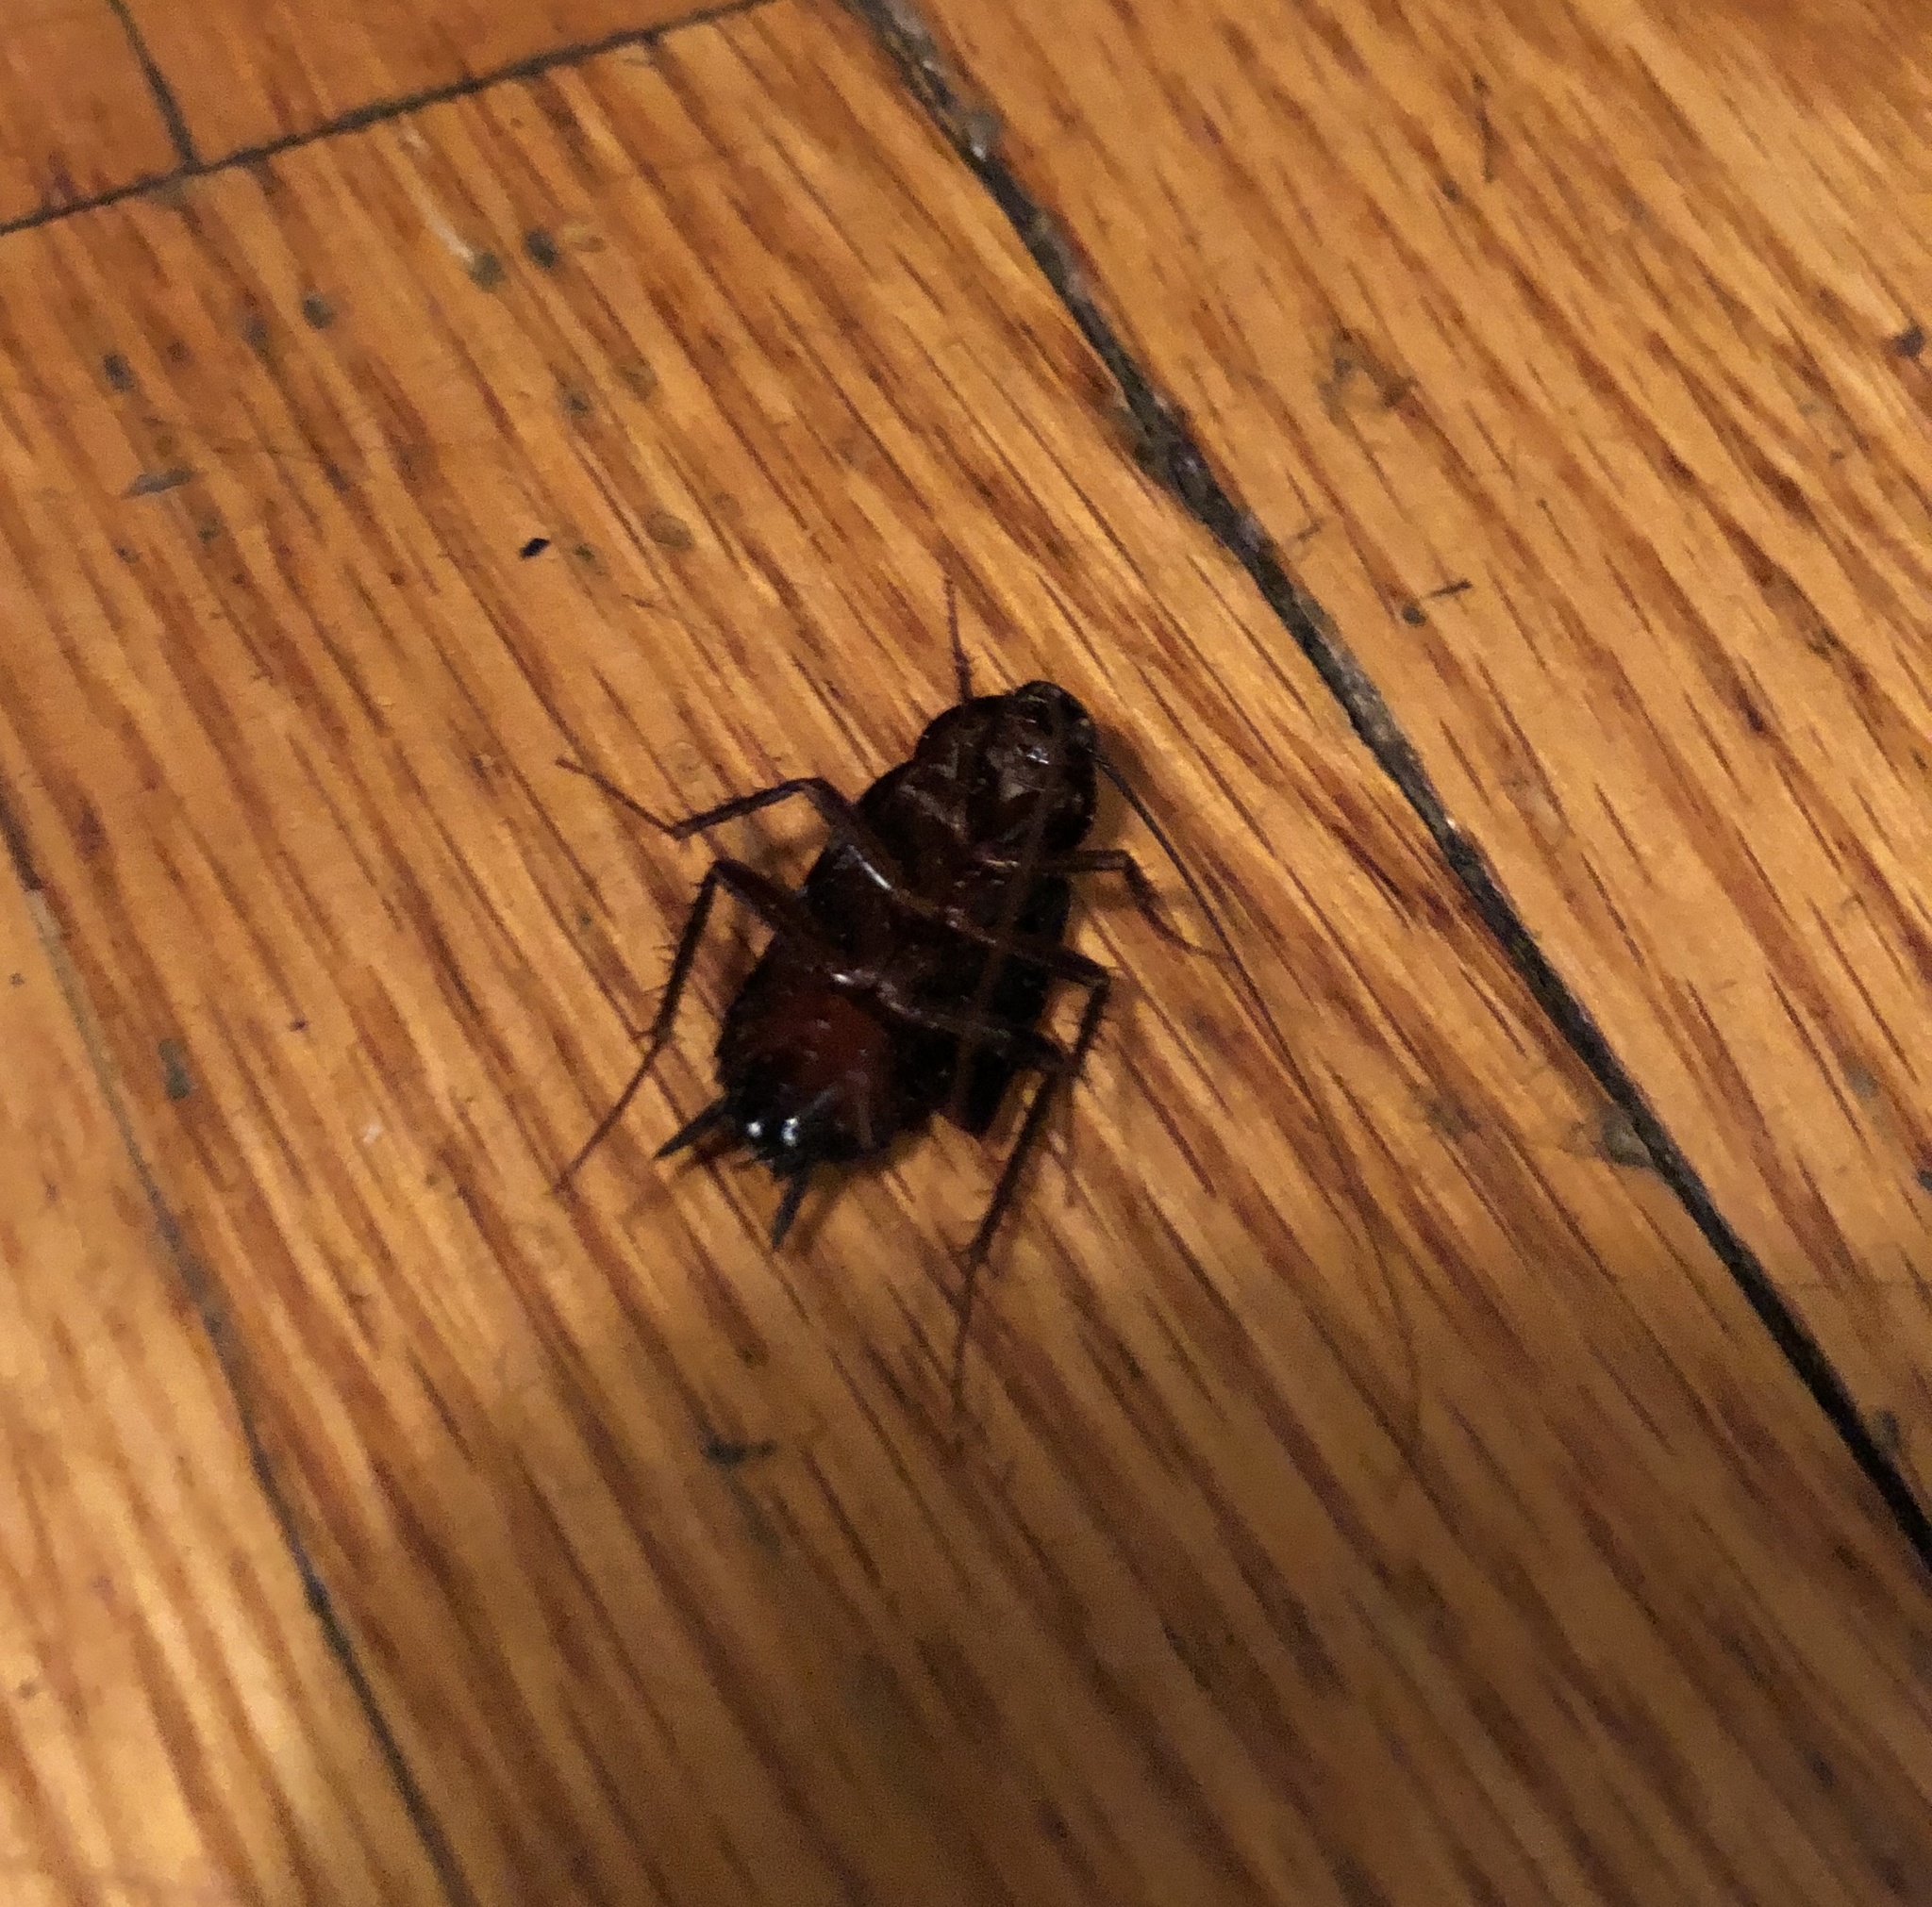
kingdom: Animalia
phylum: Arthropoda
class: Insecta
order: Blattodea
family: Blattidae
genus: Blatta
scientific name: Blatta orientalis
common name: Oriental cockroach
